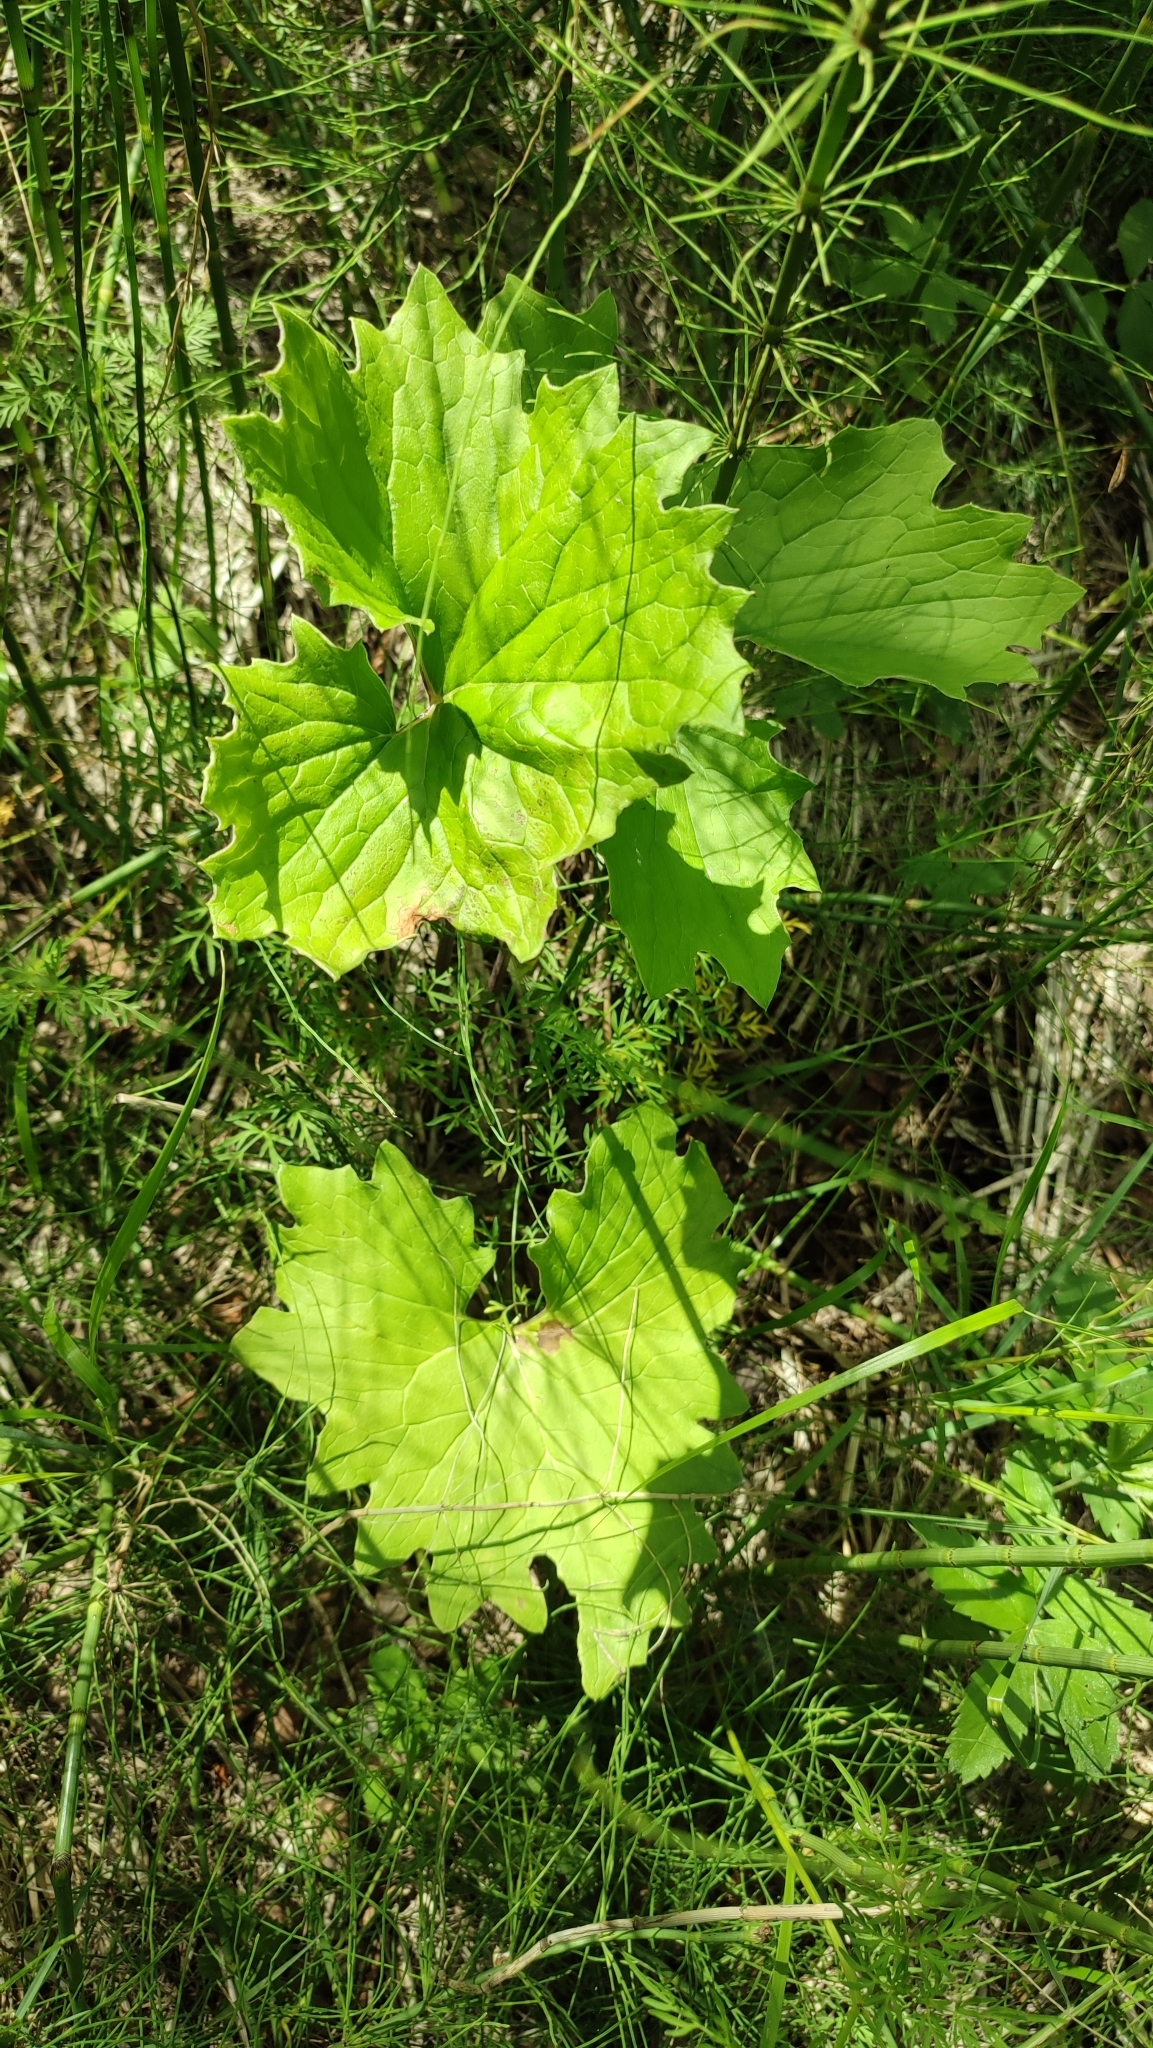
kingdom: Plantae
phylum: Tracheophyta
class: Magnoliopsida
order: Asterales
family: Asteraceae
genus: Petasites
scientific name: Petasites frigidus
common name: Arctic butterbur
